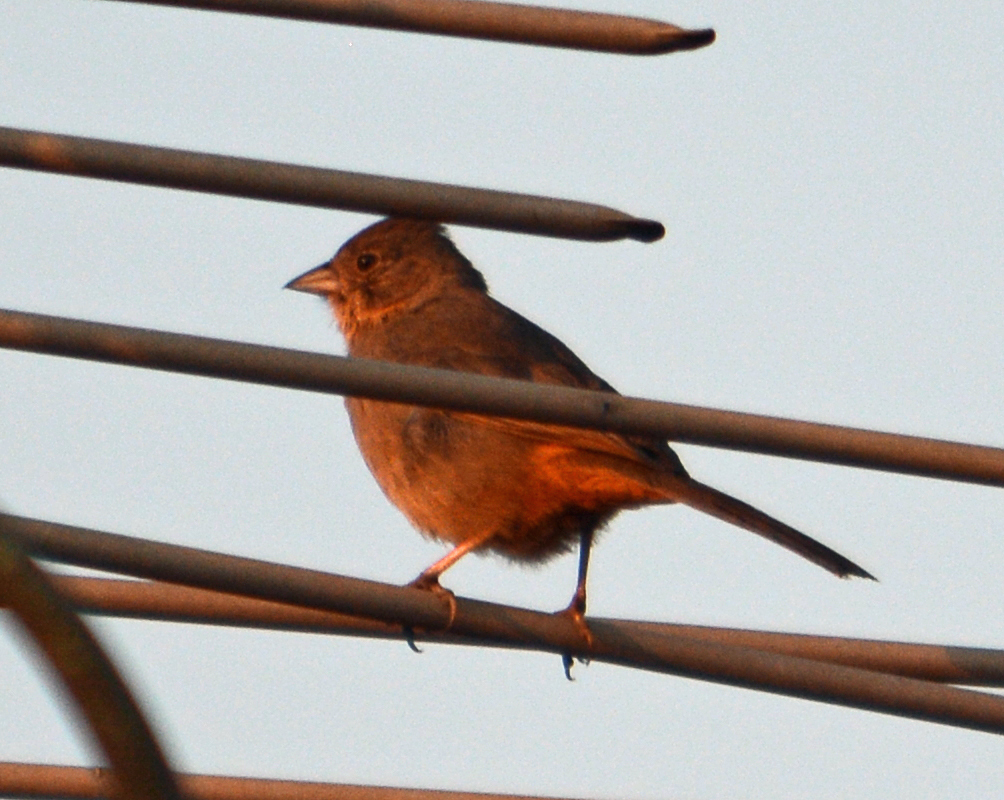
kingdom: Animalia
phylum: Chordata
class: Aves
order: Passeriformes
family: Passerellidae
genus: Melozone
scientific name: Melozone fusca
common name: Canyon towhee
